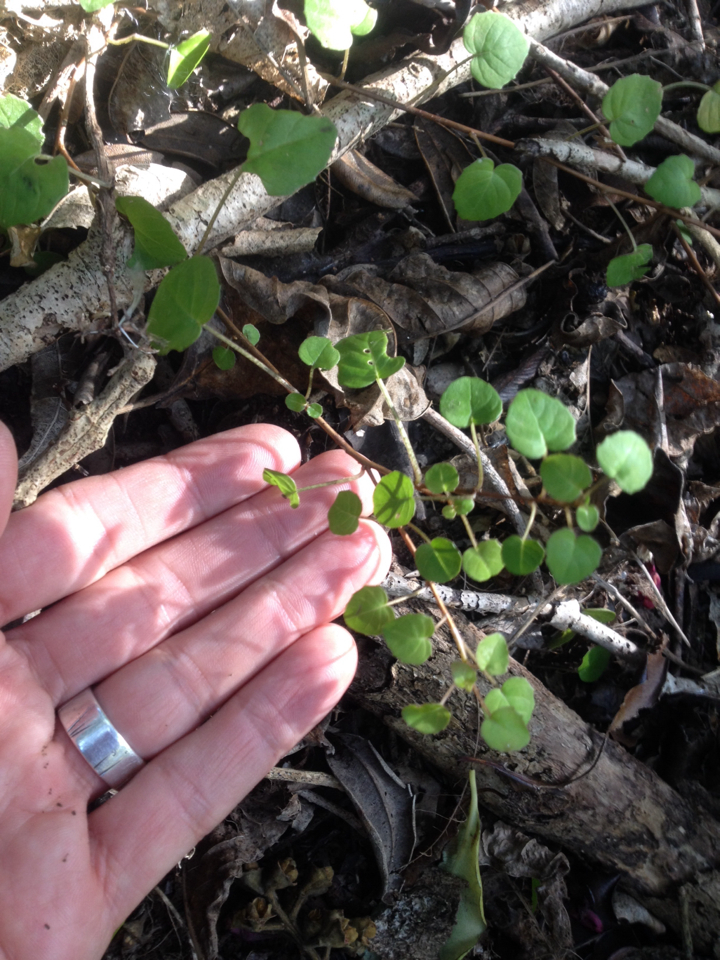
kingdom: Plantae
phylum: Tracheophyta
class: Magnoliopsida
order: Myrtales
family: Onagraceae
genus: Fuchsia
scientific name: Fuchsia procumbens
